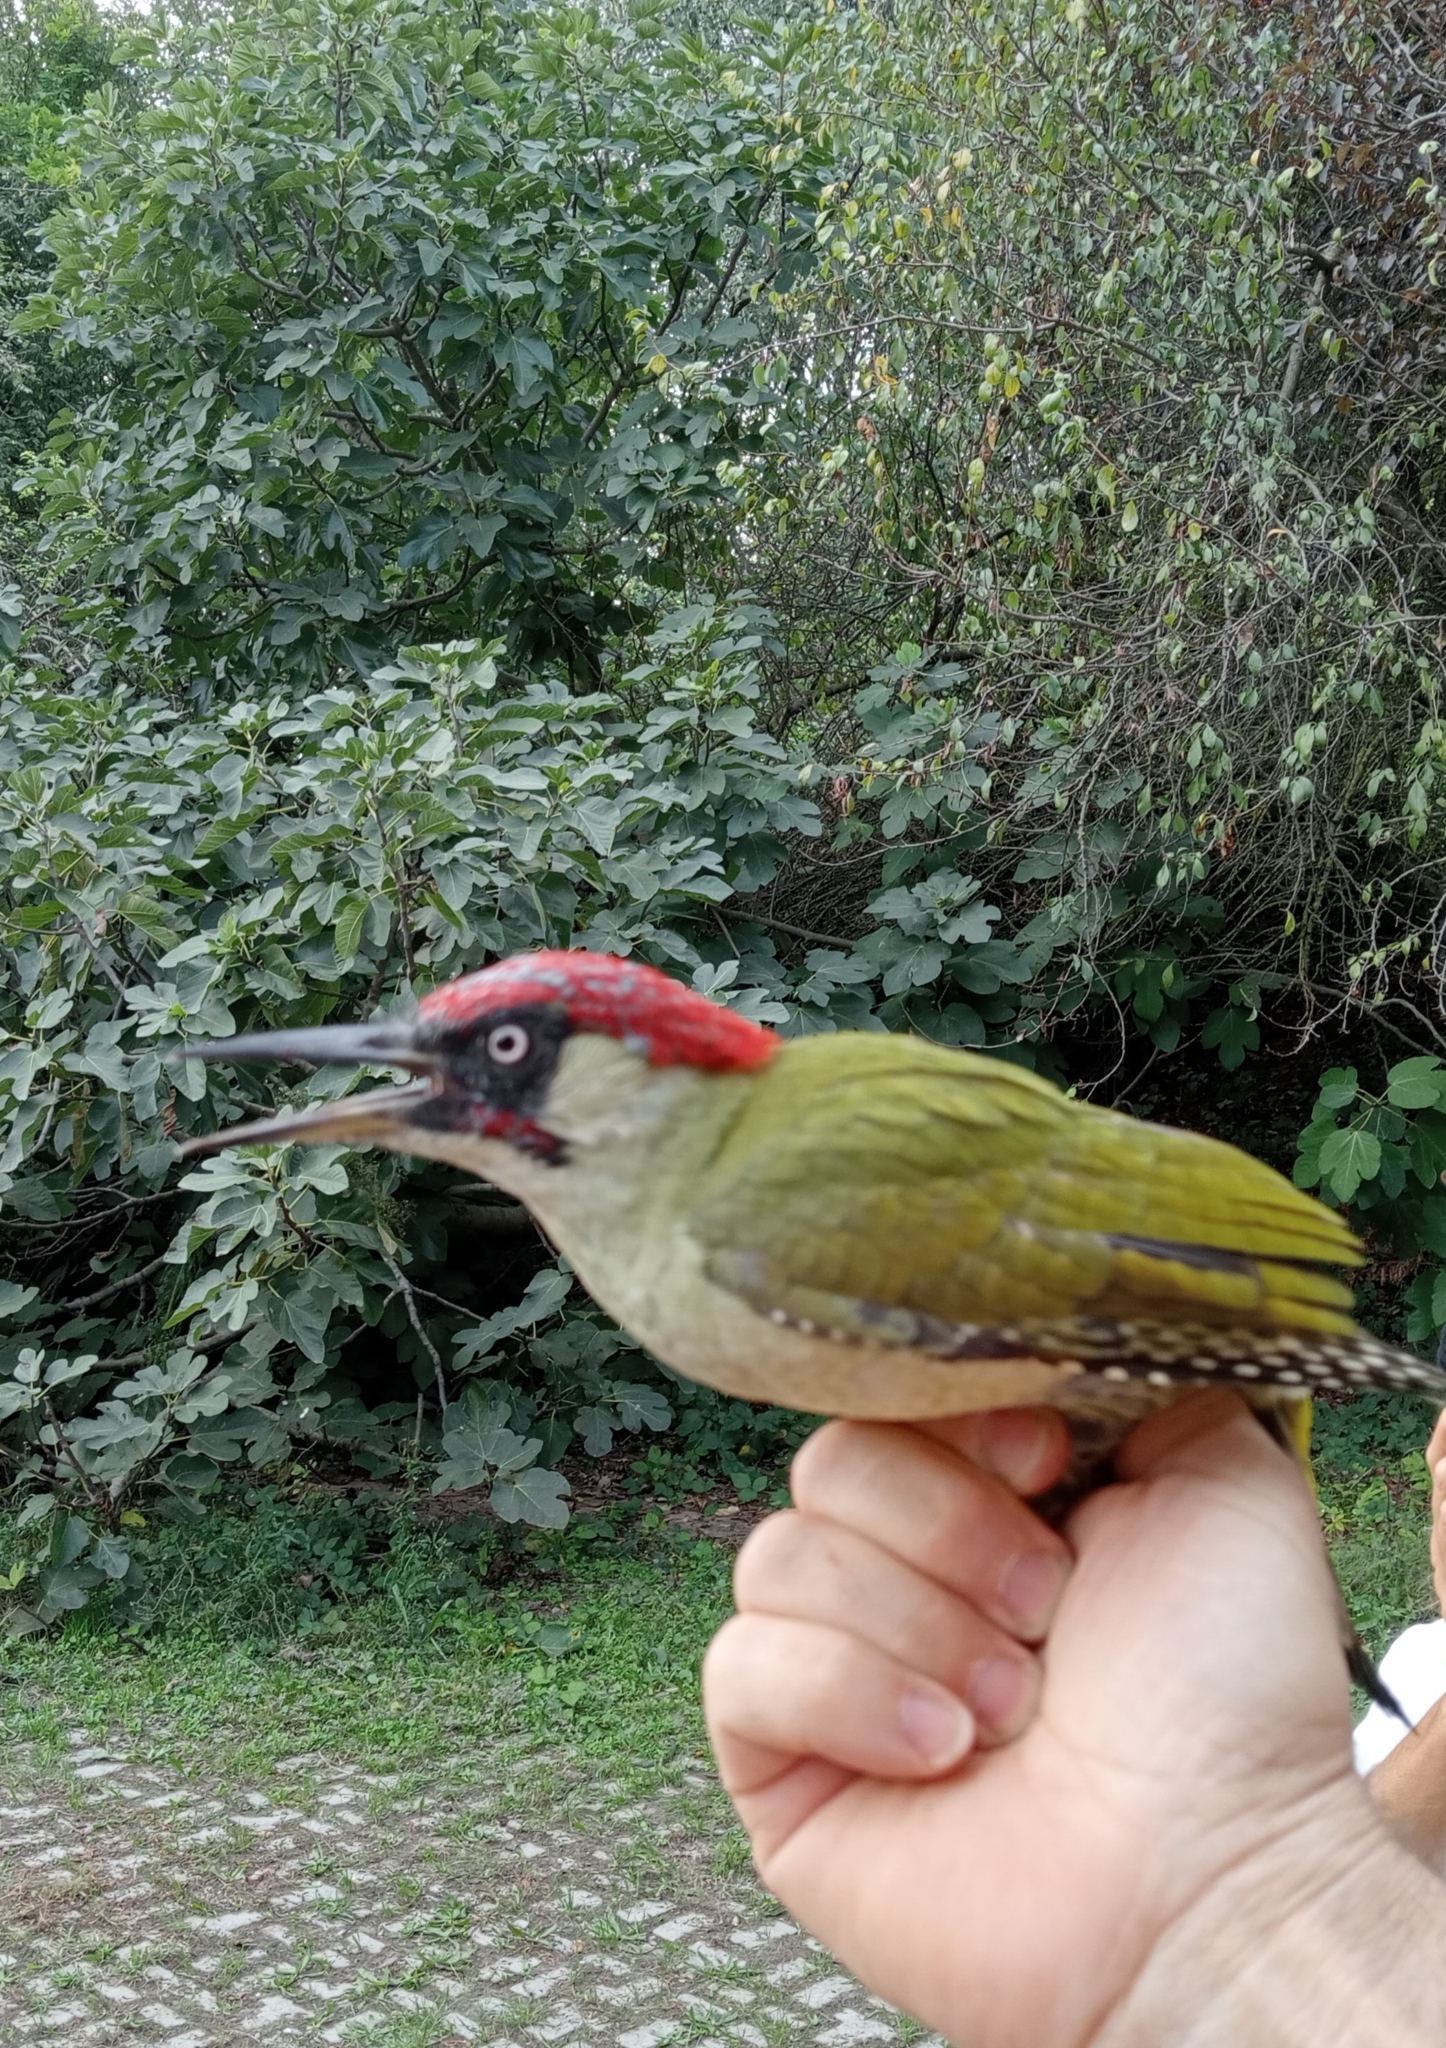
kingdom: Animalia
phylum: Chordata
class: Aves
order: Piciformes
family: Picidae
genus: Picus
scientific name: Picus viridis
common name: European green woodpecker
